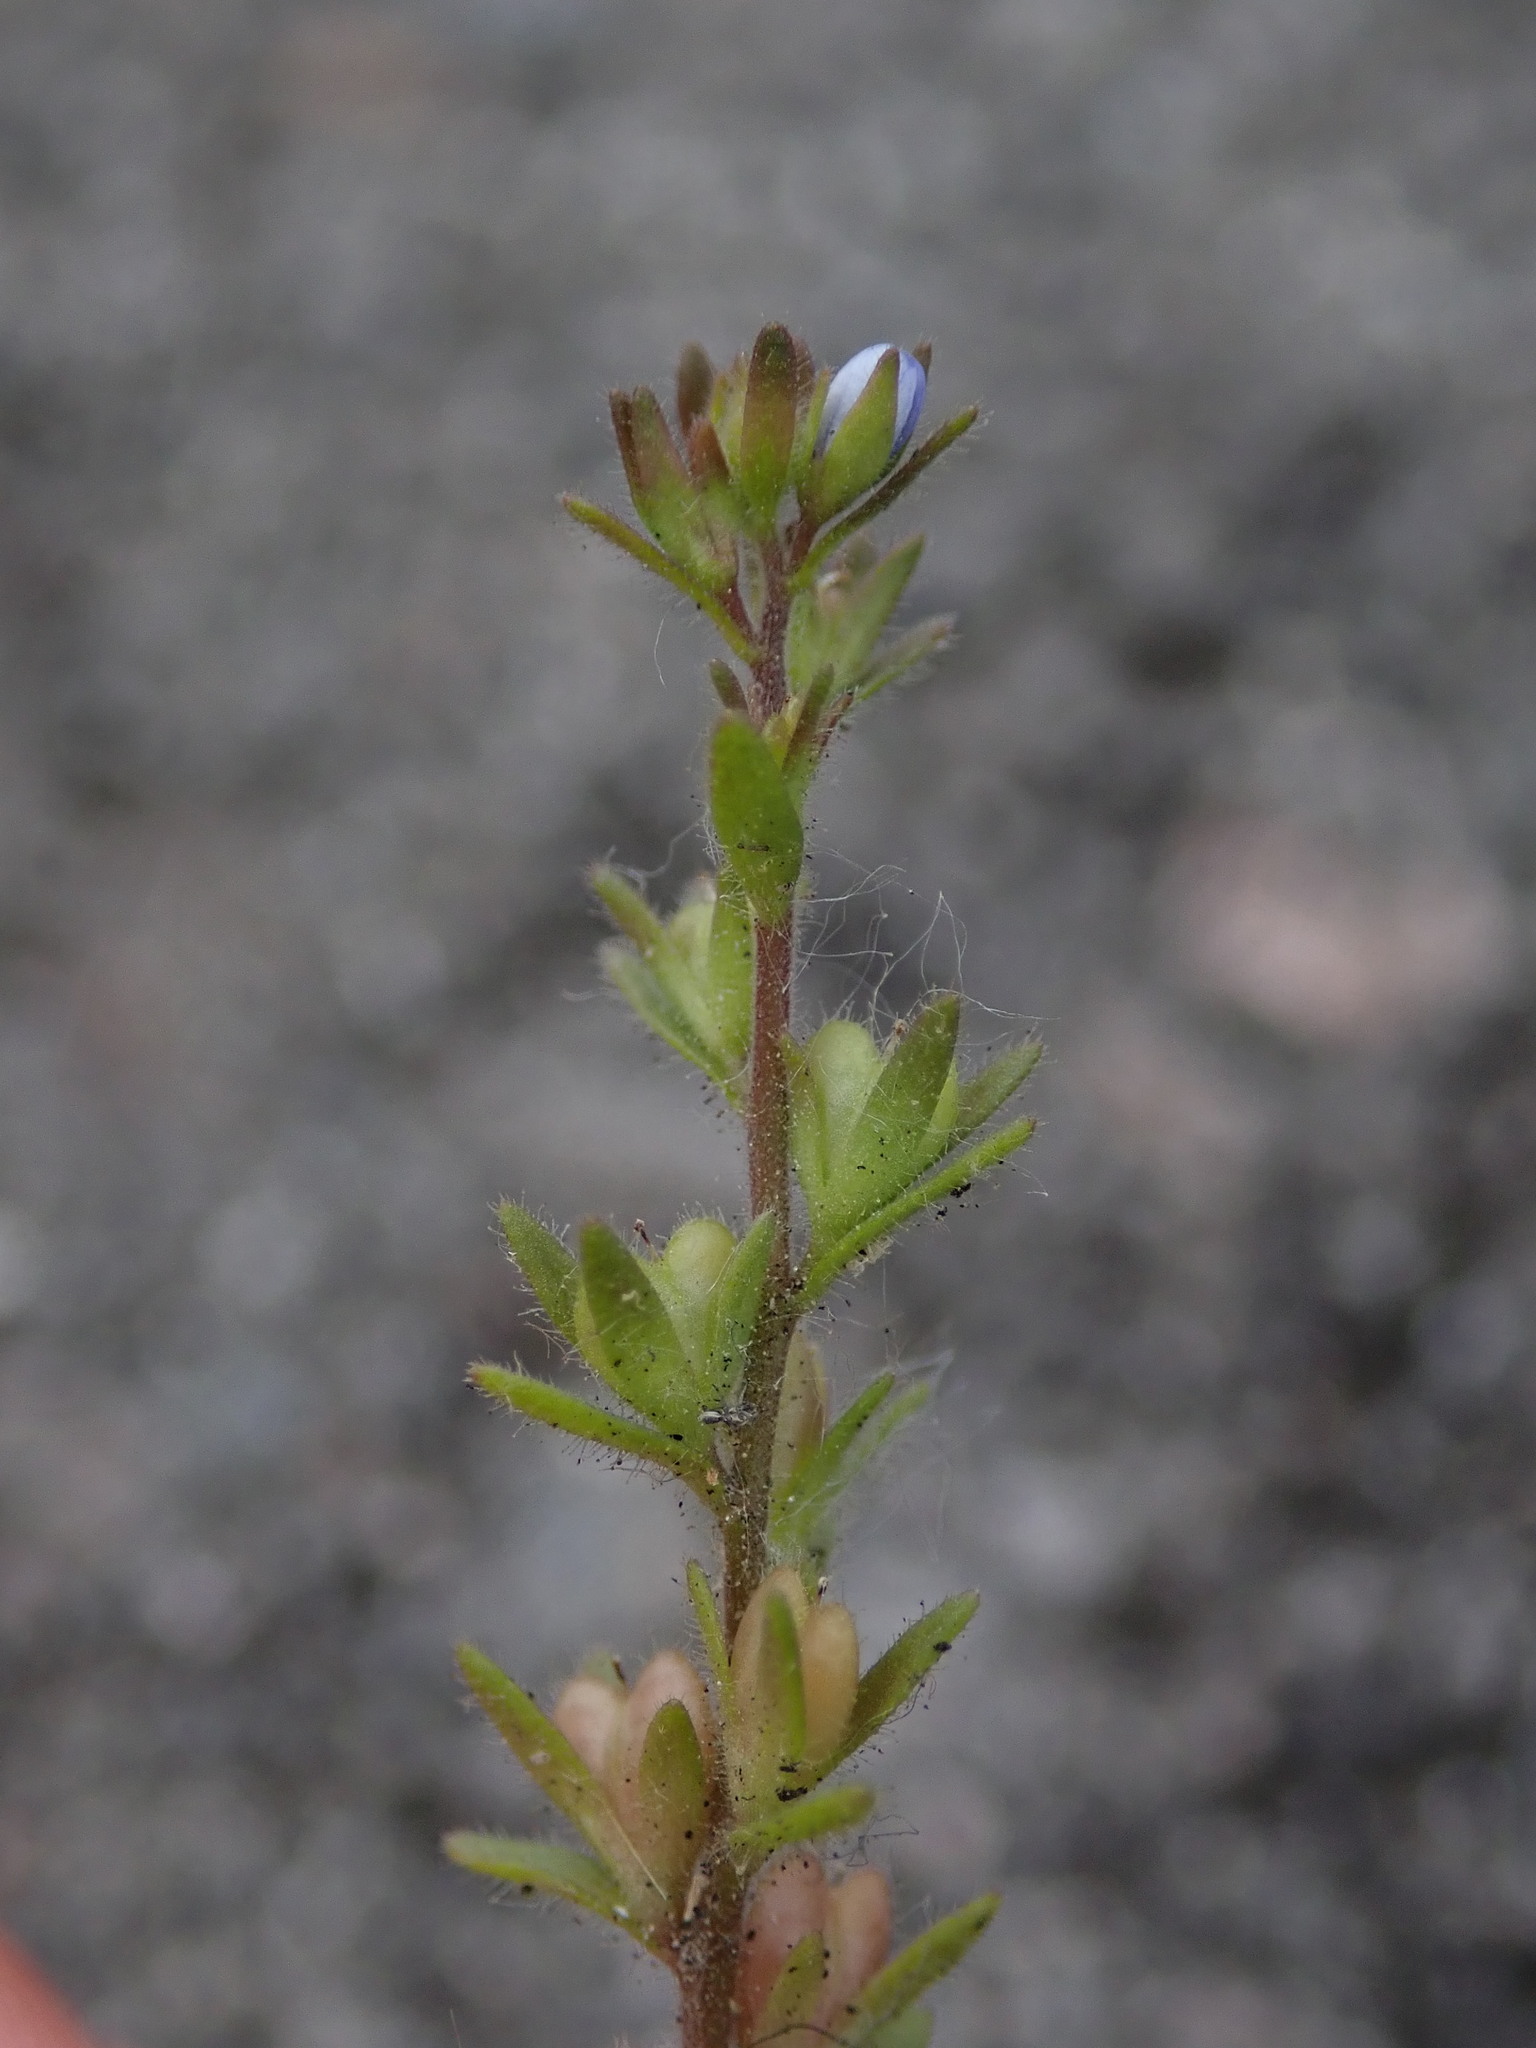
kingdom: Plantae
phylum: Tracheophyta
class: Magnoliopsida
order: Lamiales
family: Plantaginaceae
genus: Veronica
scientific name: Veronica arvensis
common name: Corn speedwell
